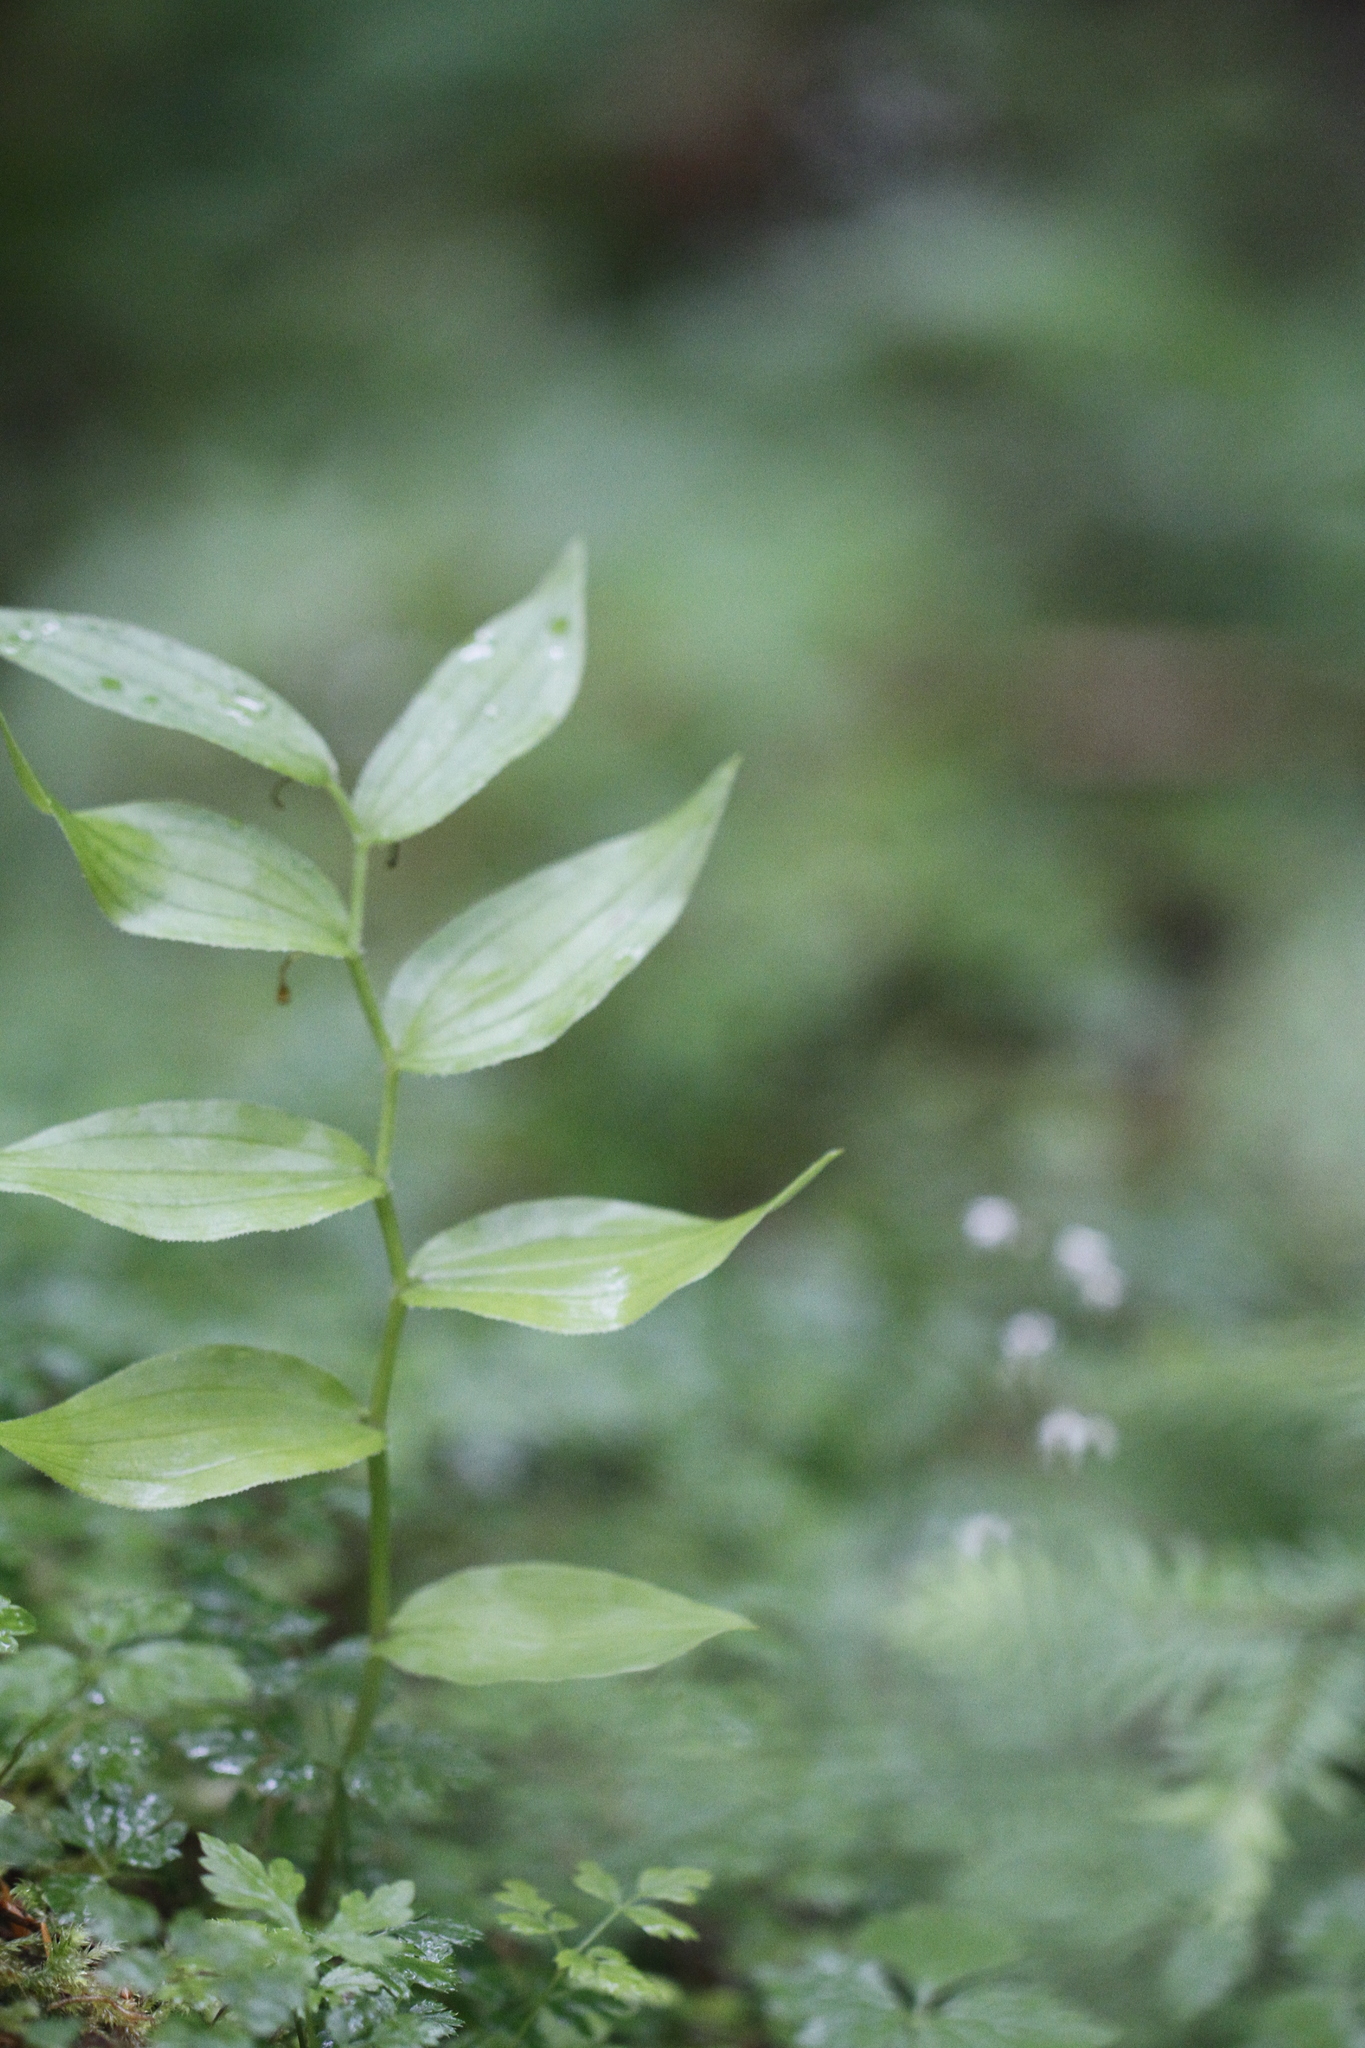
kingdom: Plantae
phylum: Tracheophyta
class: Liliopsida
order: Liliales
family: Liliaceae
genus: Streptopus
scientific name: Streptopus lanceolatus
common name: Rose mandarin
